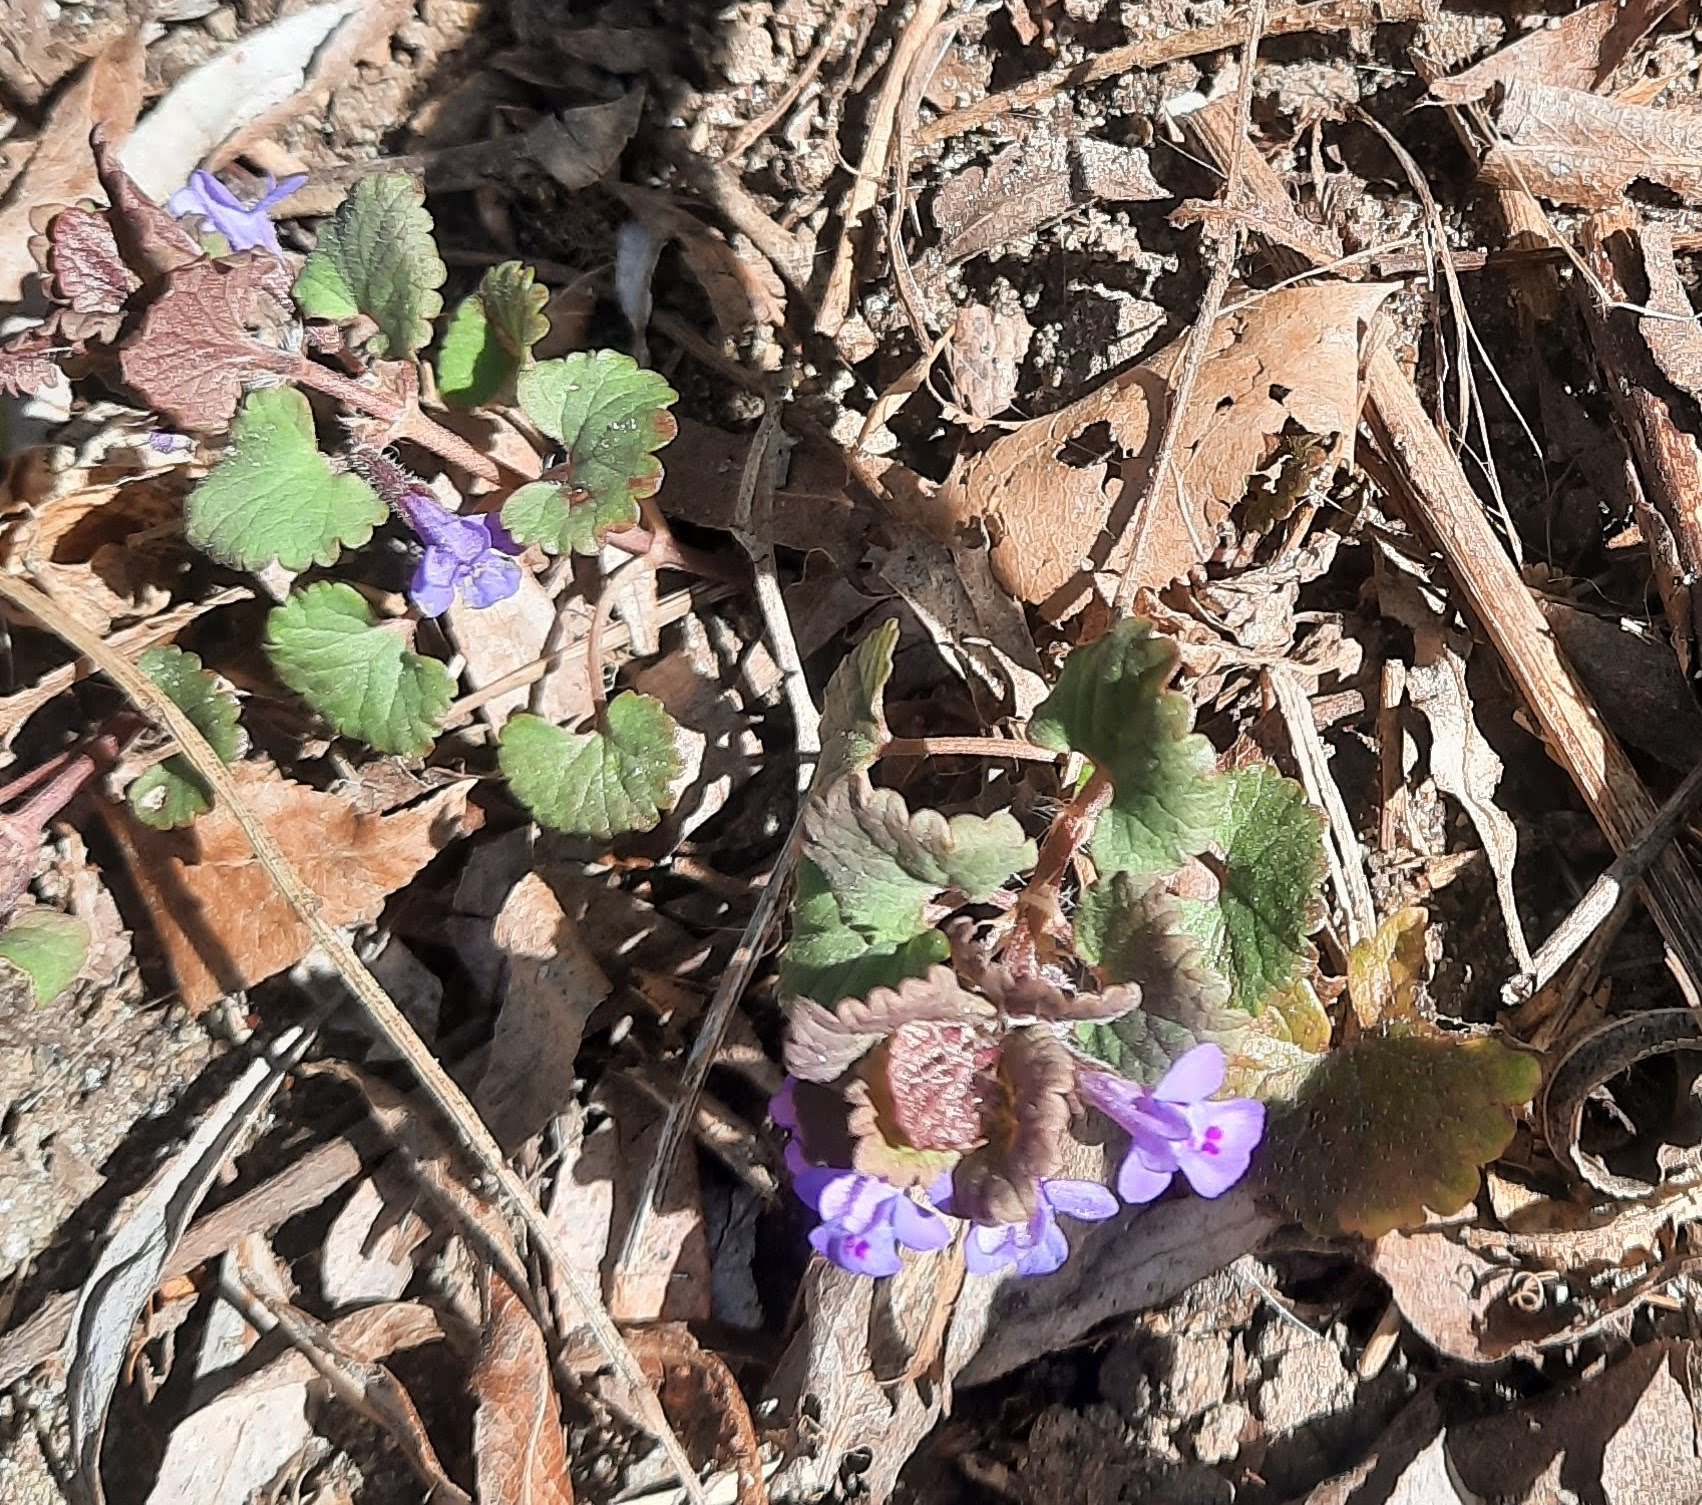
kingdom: Plantae
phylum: Tracheophyta
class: Magnoliopsida
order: Lamiales
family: Lamiaceae
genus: Glechoma
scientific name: Glechoma hederacea
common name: Ground ivy
